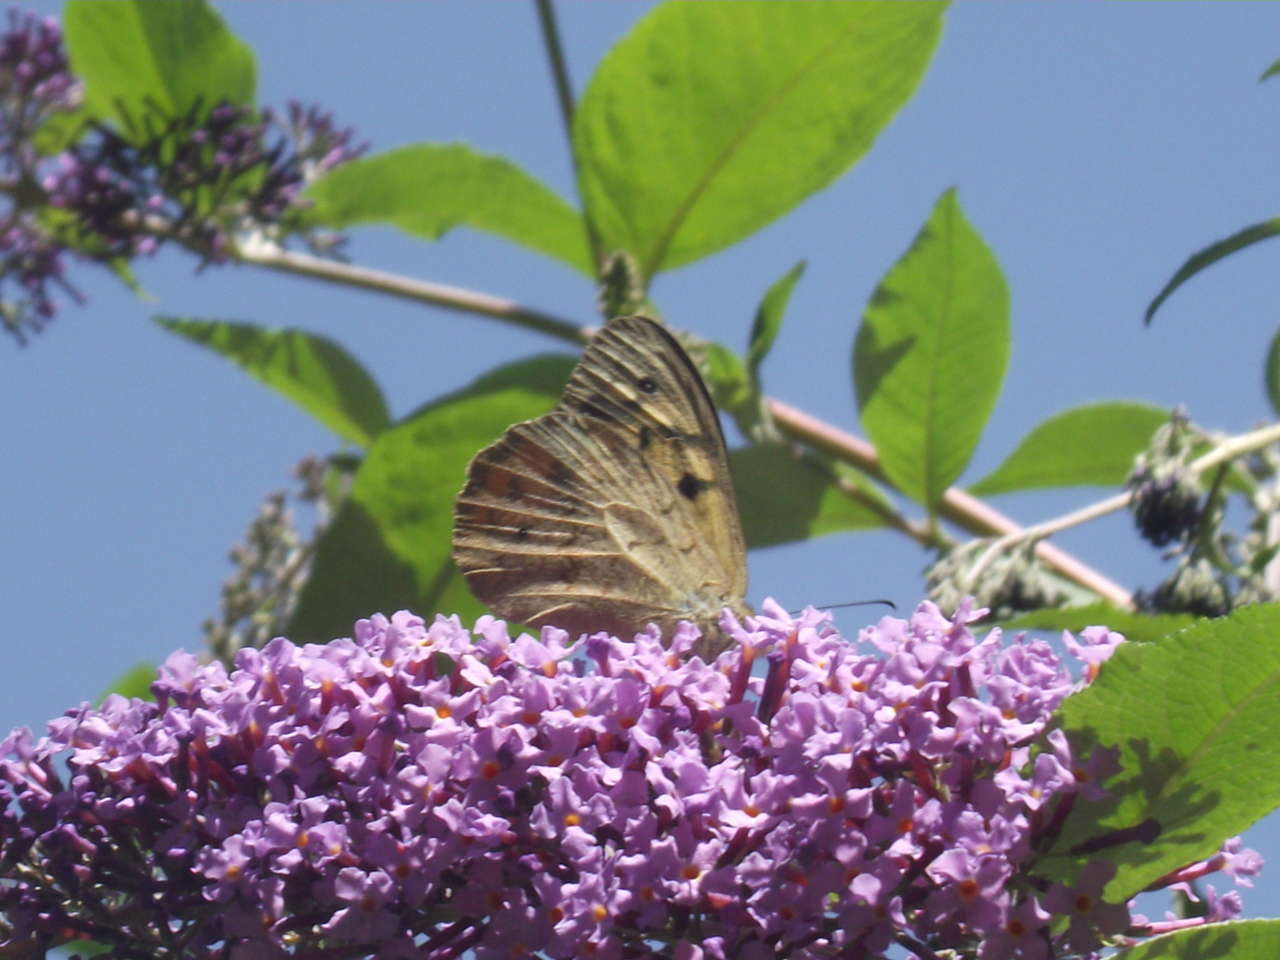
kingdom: Animalia
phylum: Arthropoda
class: Insecta
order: Lepidoptera
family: Nymphalidae
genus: Heteronympha
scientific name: Heteronympha merope
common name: Common brown
